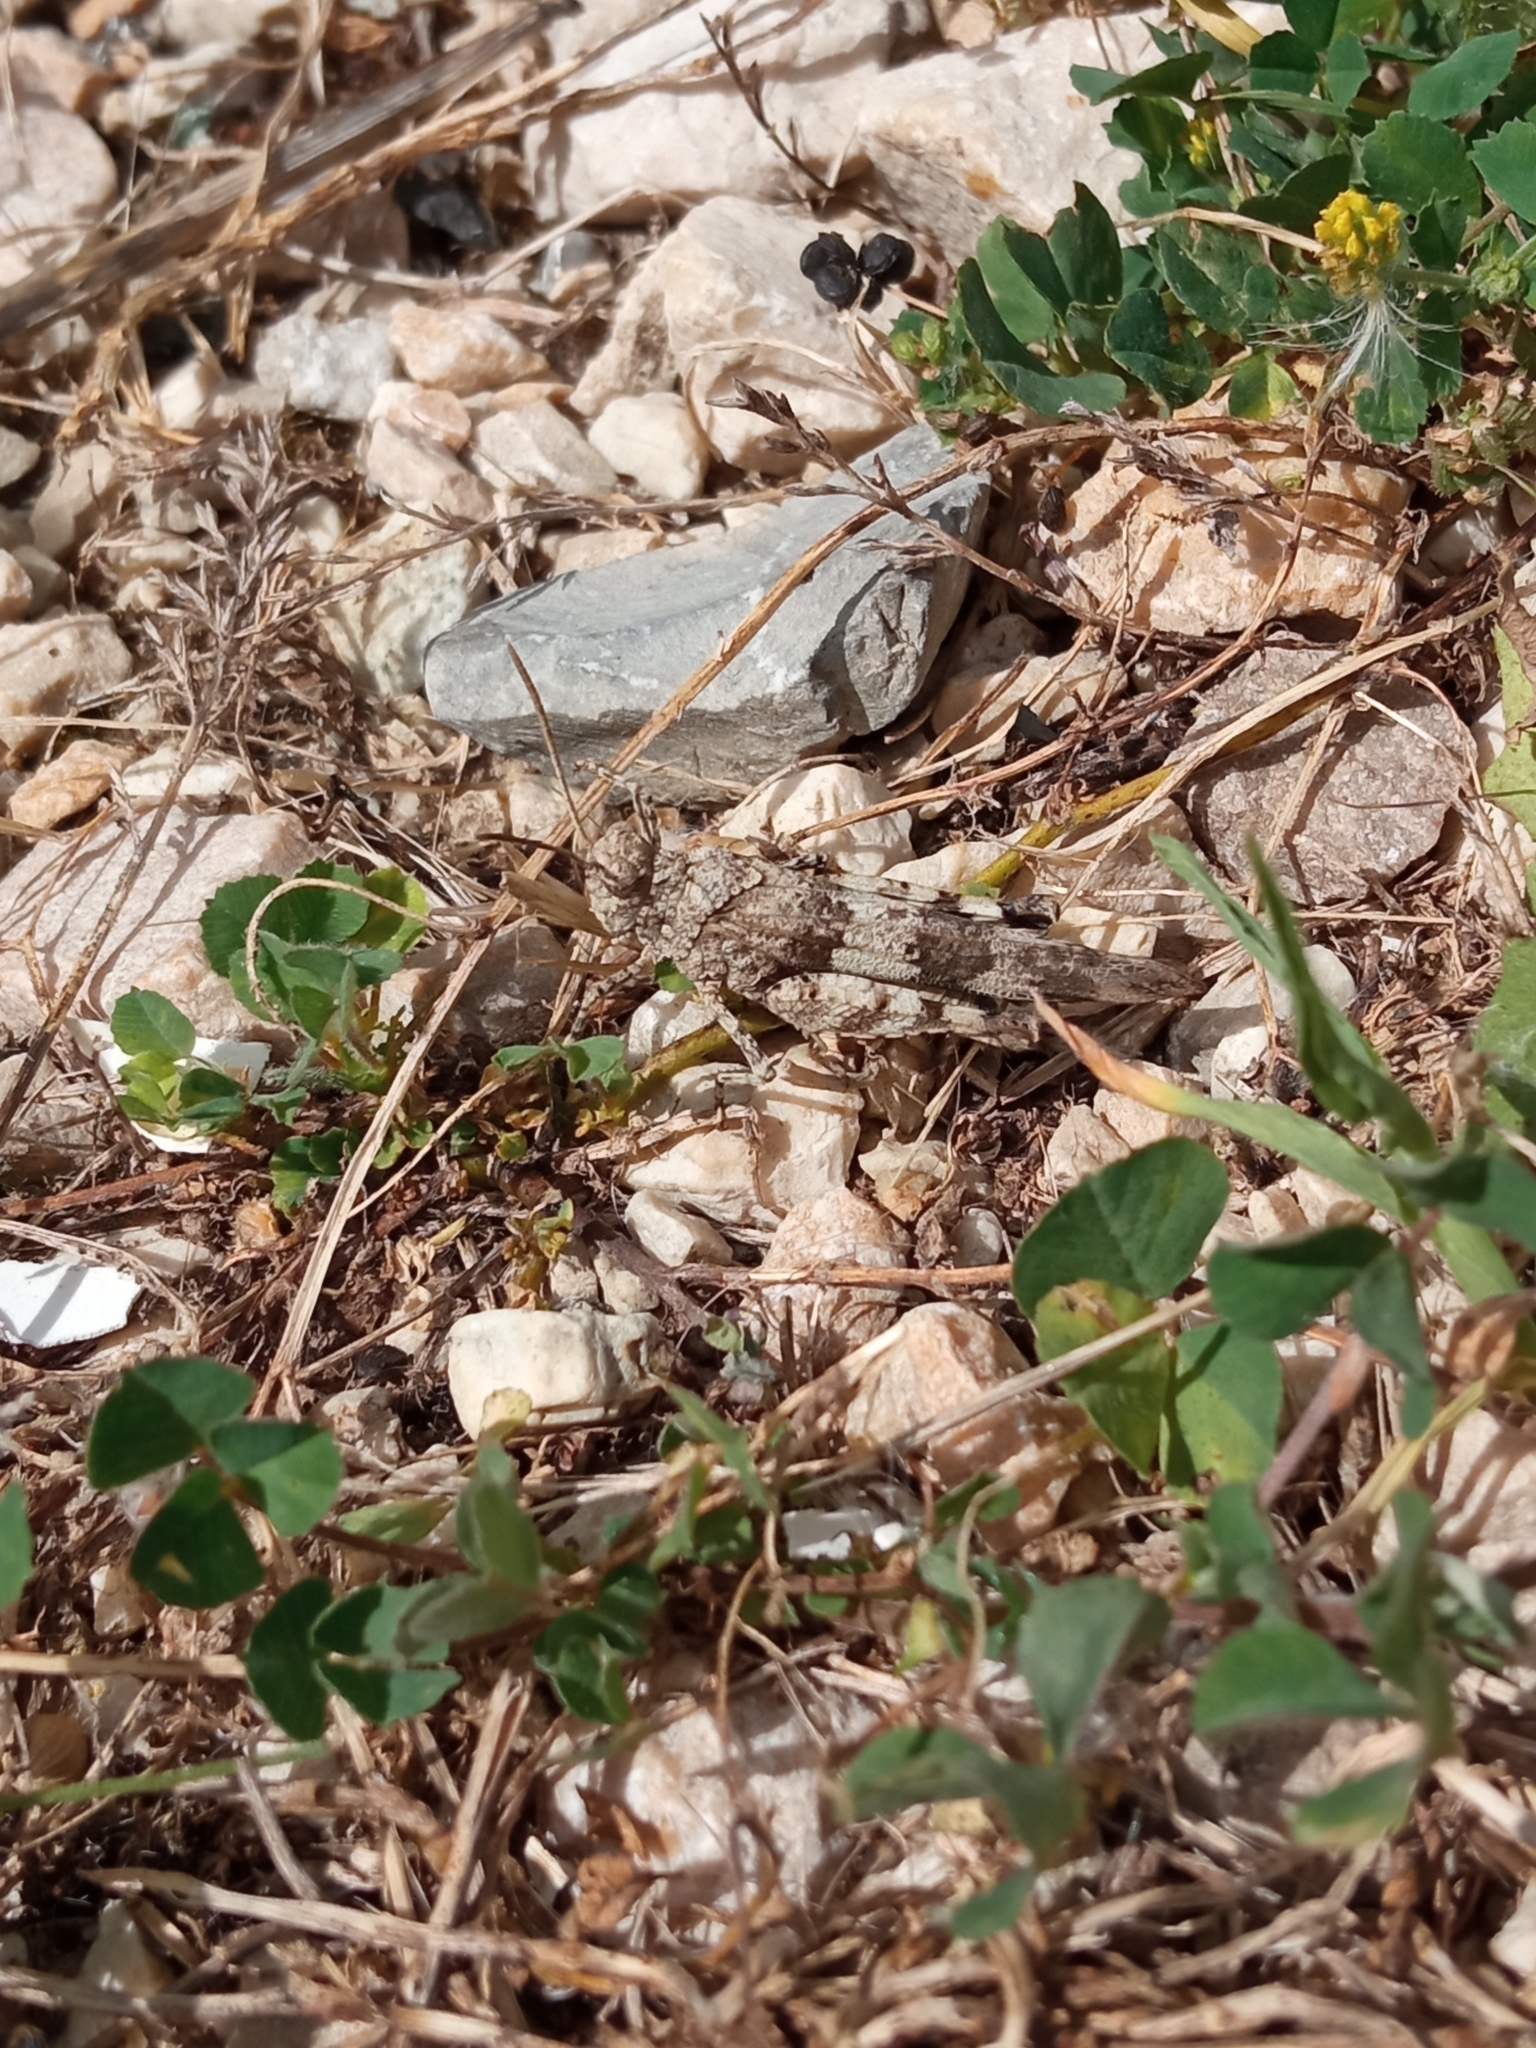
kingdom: Animalia
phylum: Arthropoda
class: Insecta
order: Orthoptera
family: Acrididae
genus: Oedipoda
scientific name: Oedipoda caerulescens
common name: Blue-winged grasshopper
